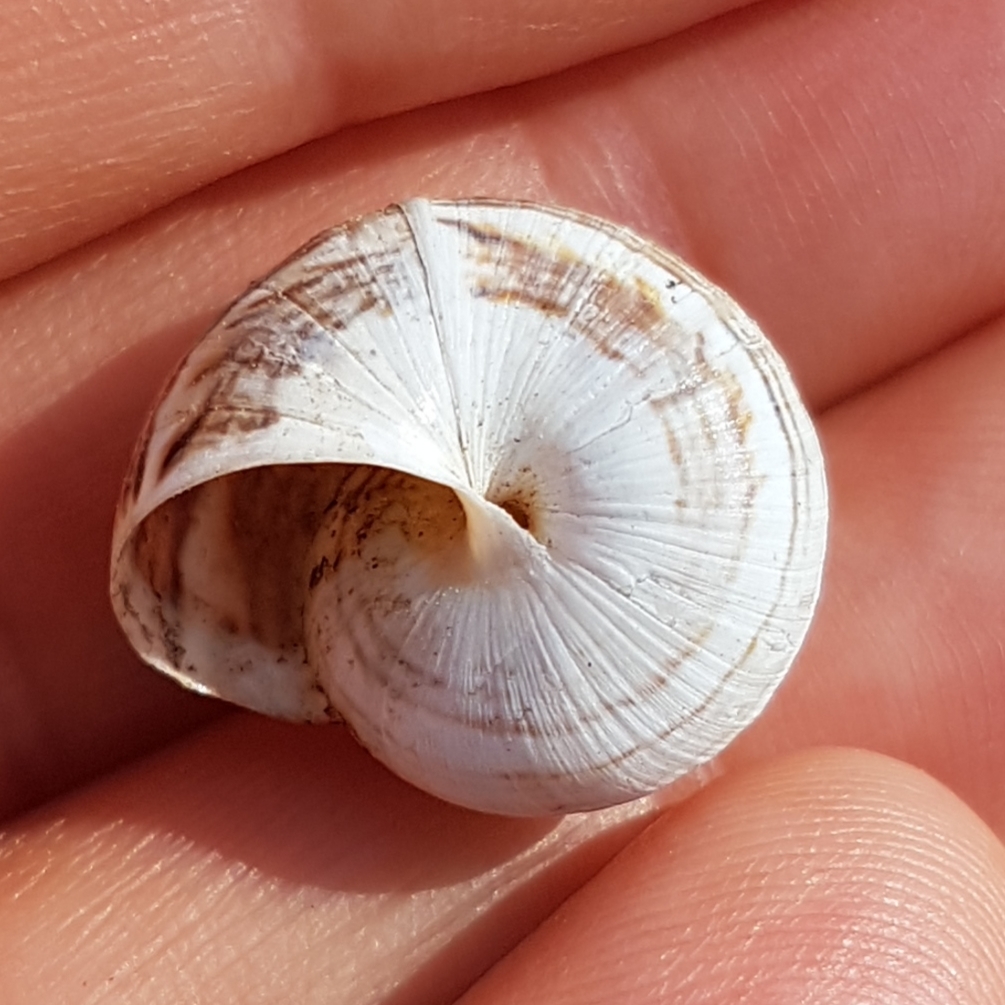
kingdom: Animalia
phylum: Mollusca
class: Gastropoda
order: Stylommatophora
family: Helicidae
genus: Theba
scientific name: Theba pisana
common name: White snail
